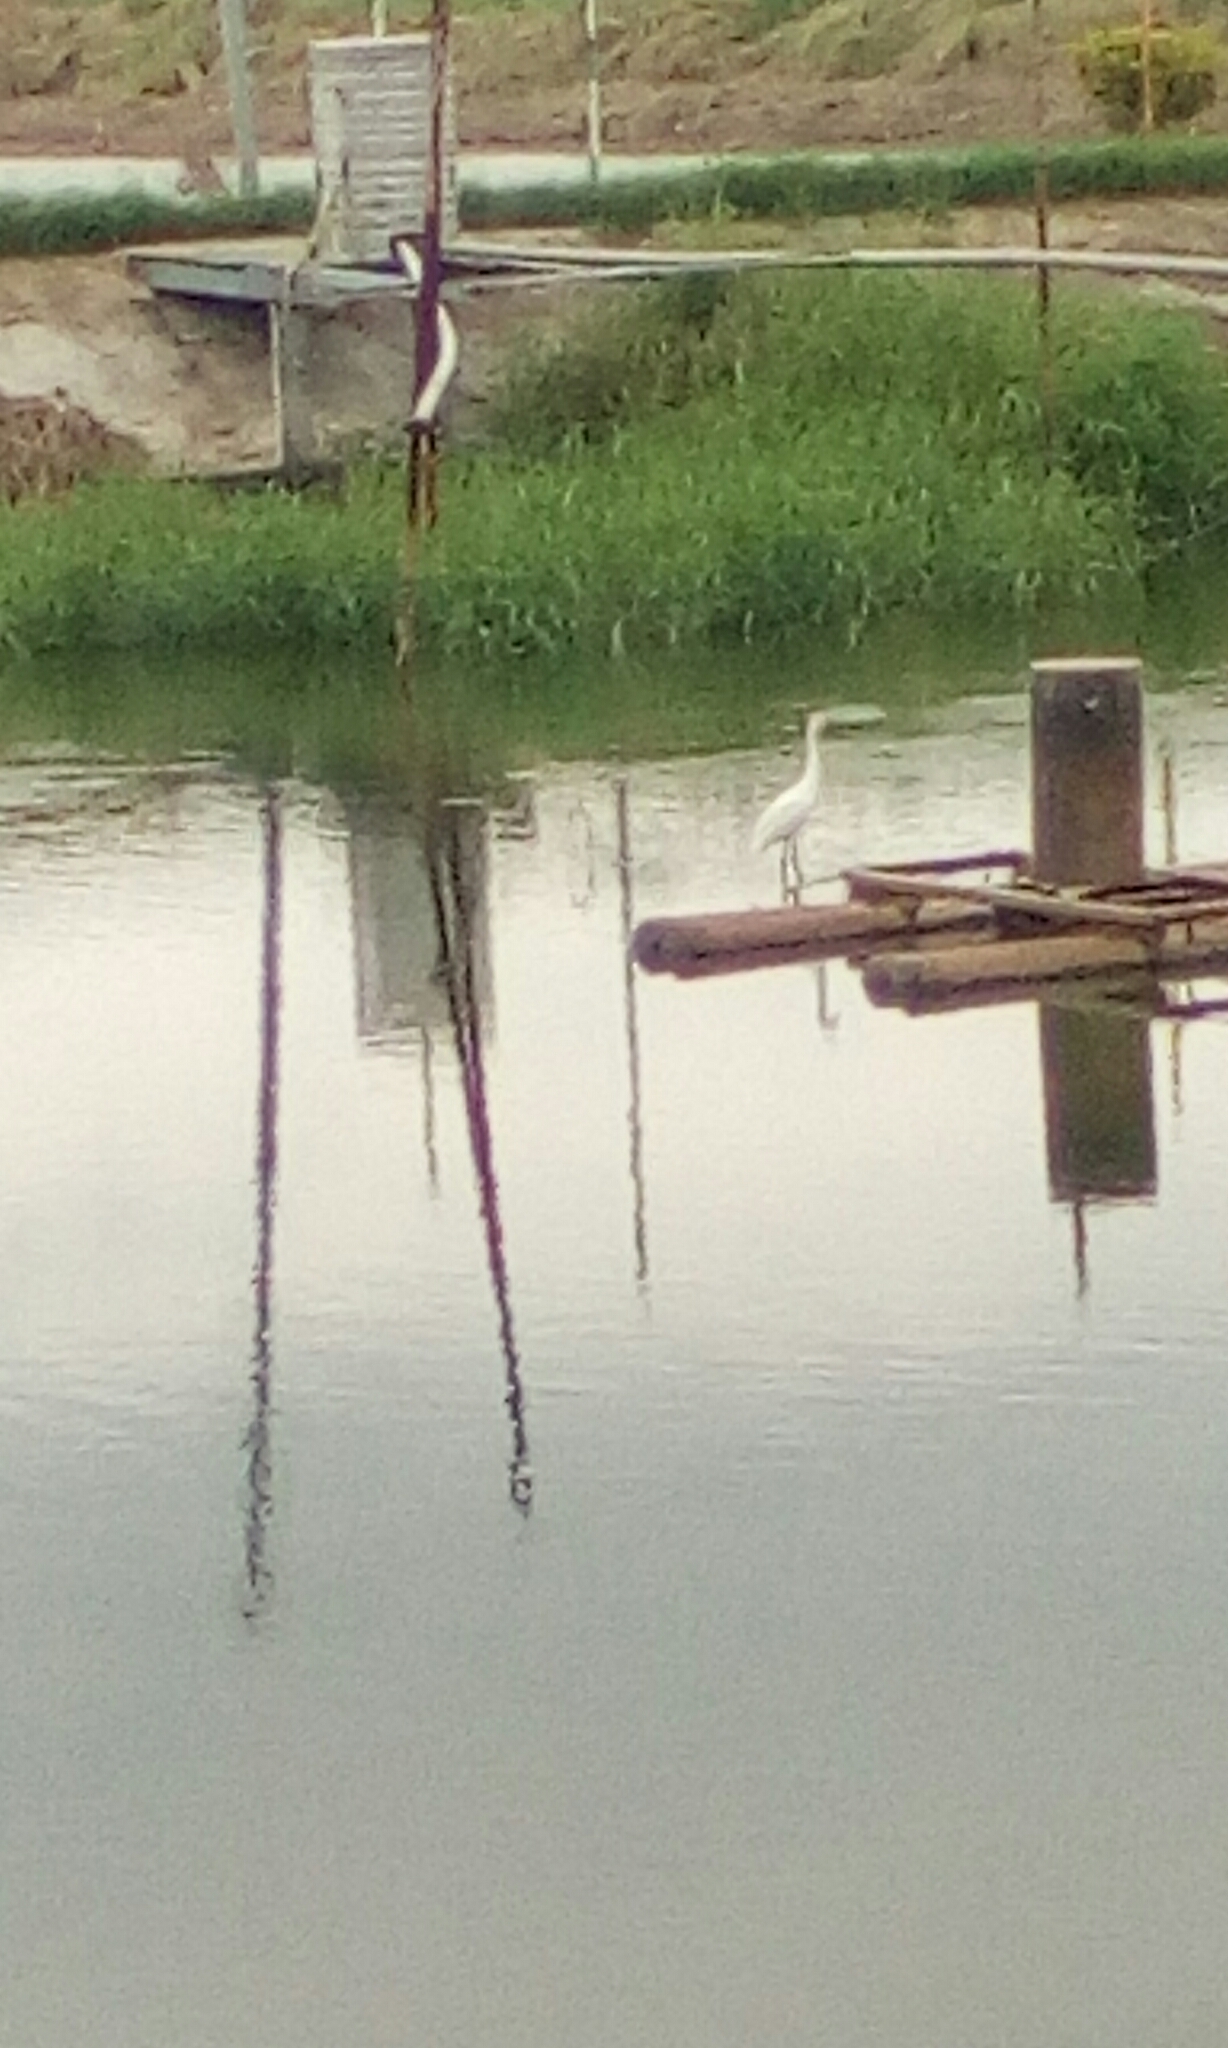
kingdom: Animalia
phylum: Chordata
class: Aves
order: Pelecaniformes
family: Ardeidae
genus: Egretta
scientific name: Egretta garzetta
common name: Little egret
